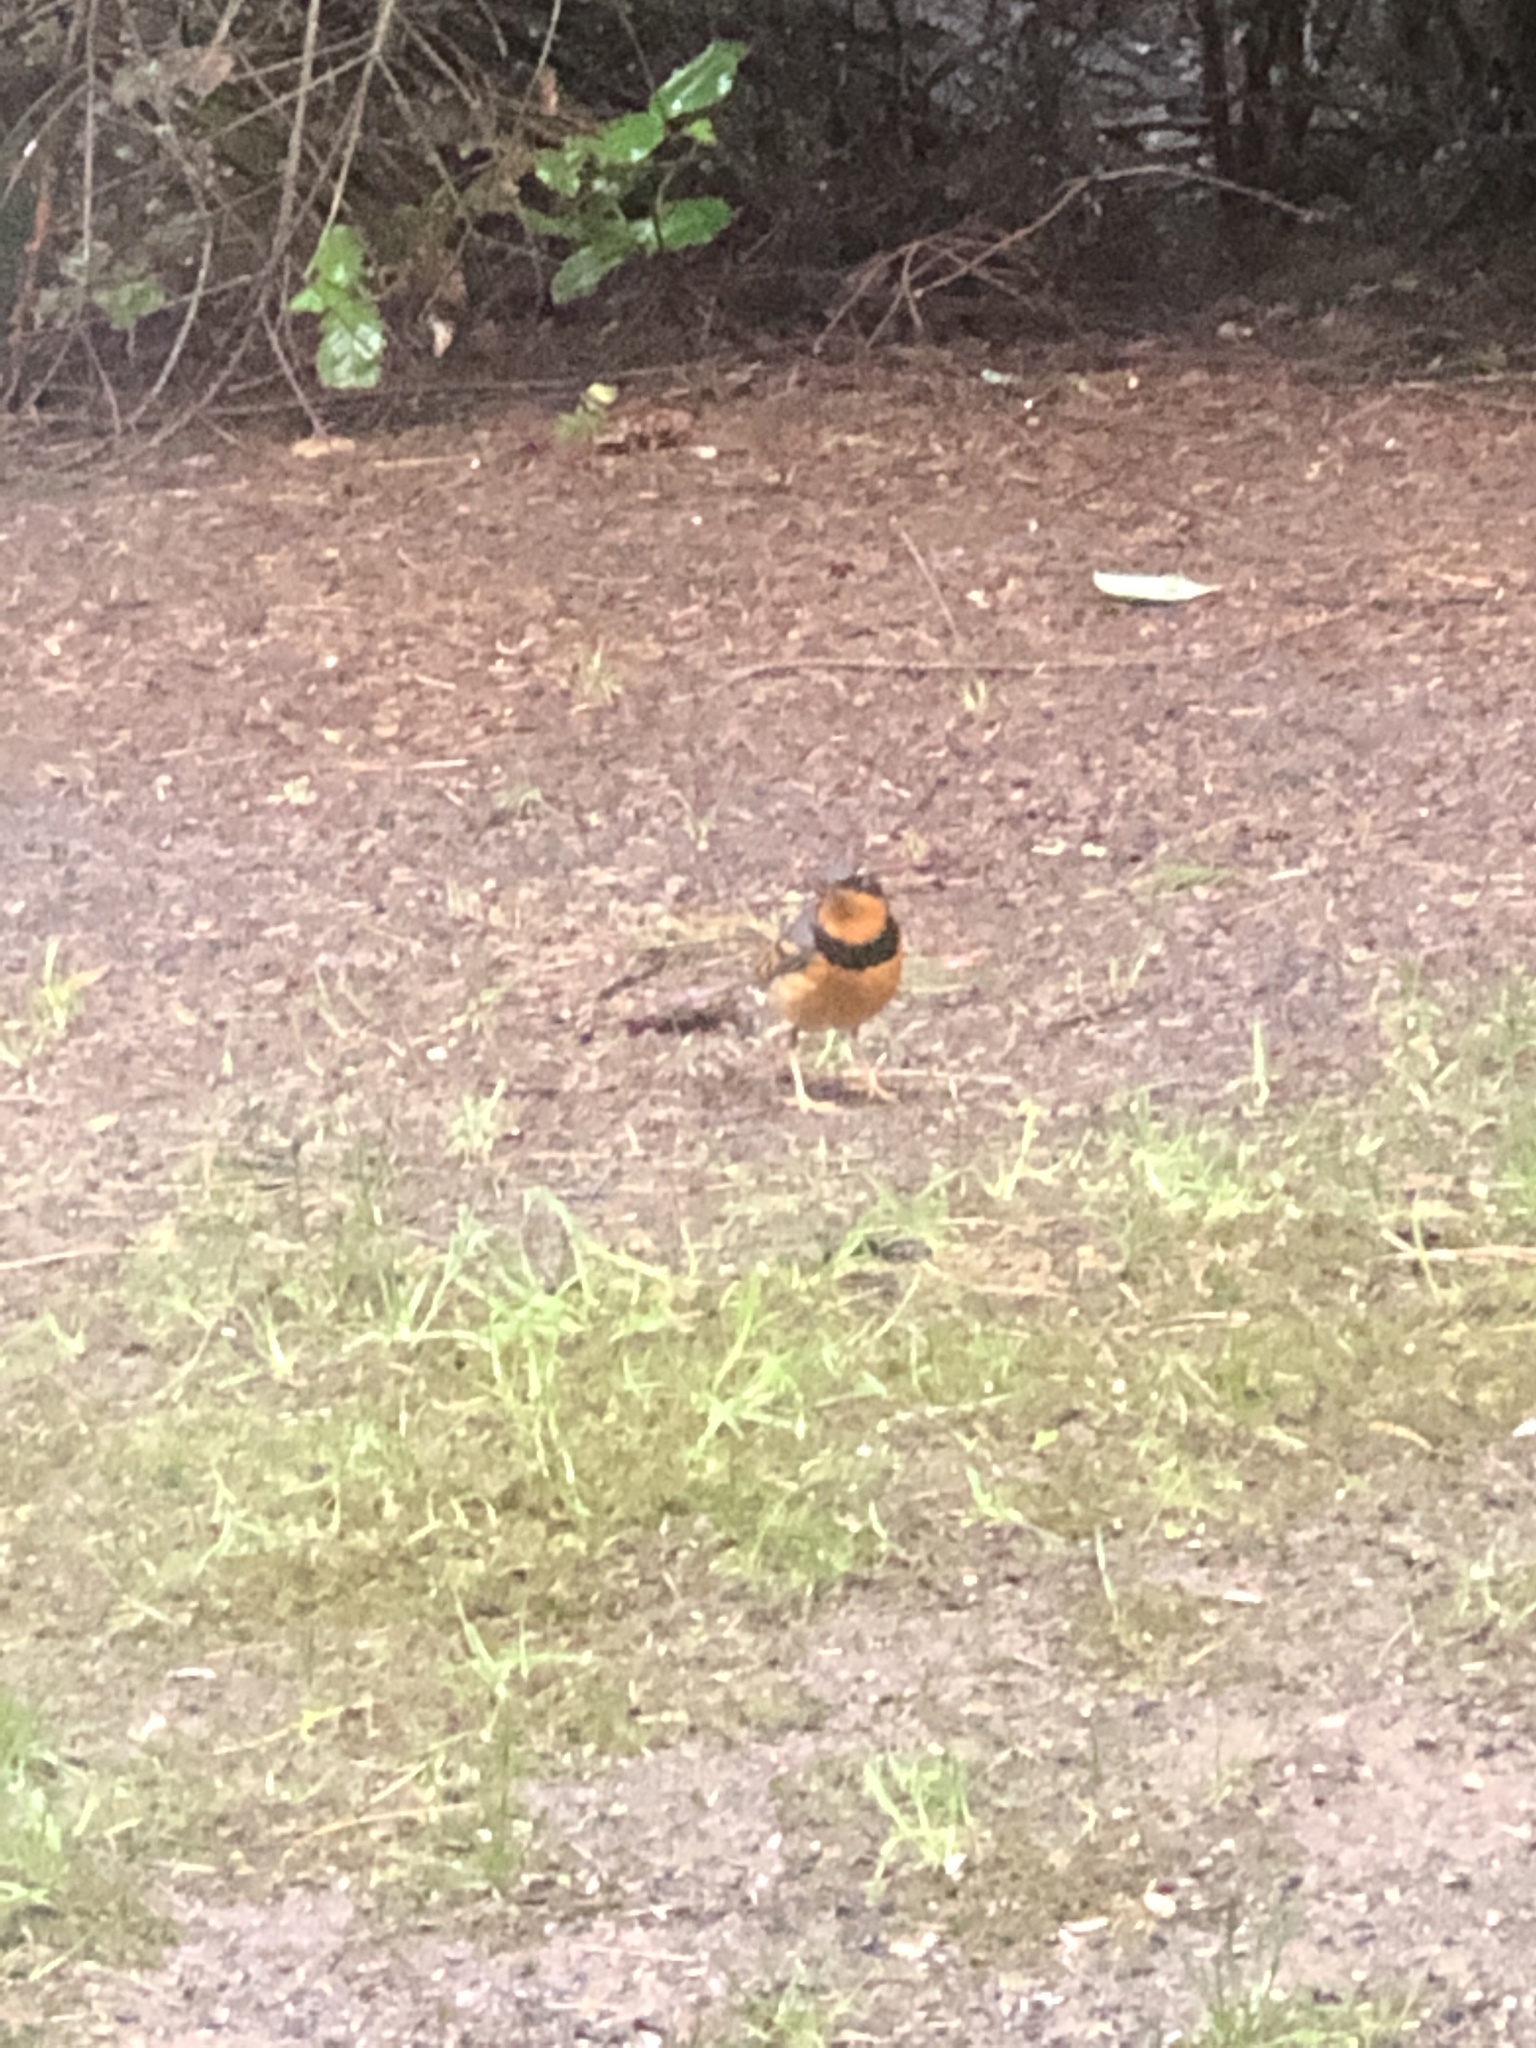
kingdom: Animalia
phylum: Chordata
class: Aves
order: Passeriformes
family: Turdidae
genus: Ixoreus
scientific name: Ixoreus naevius
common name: Varied thrush
